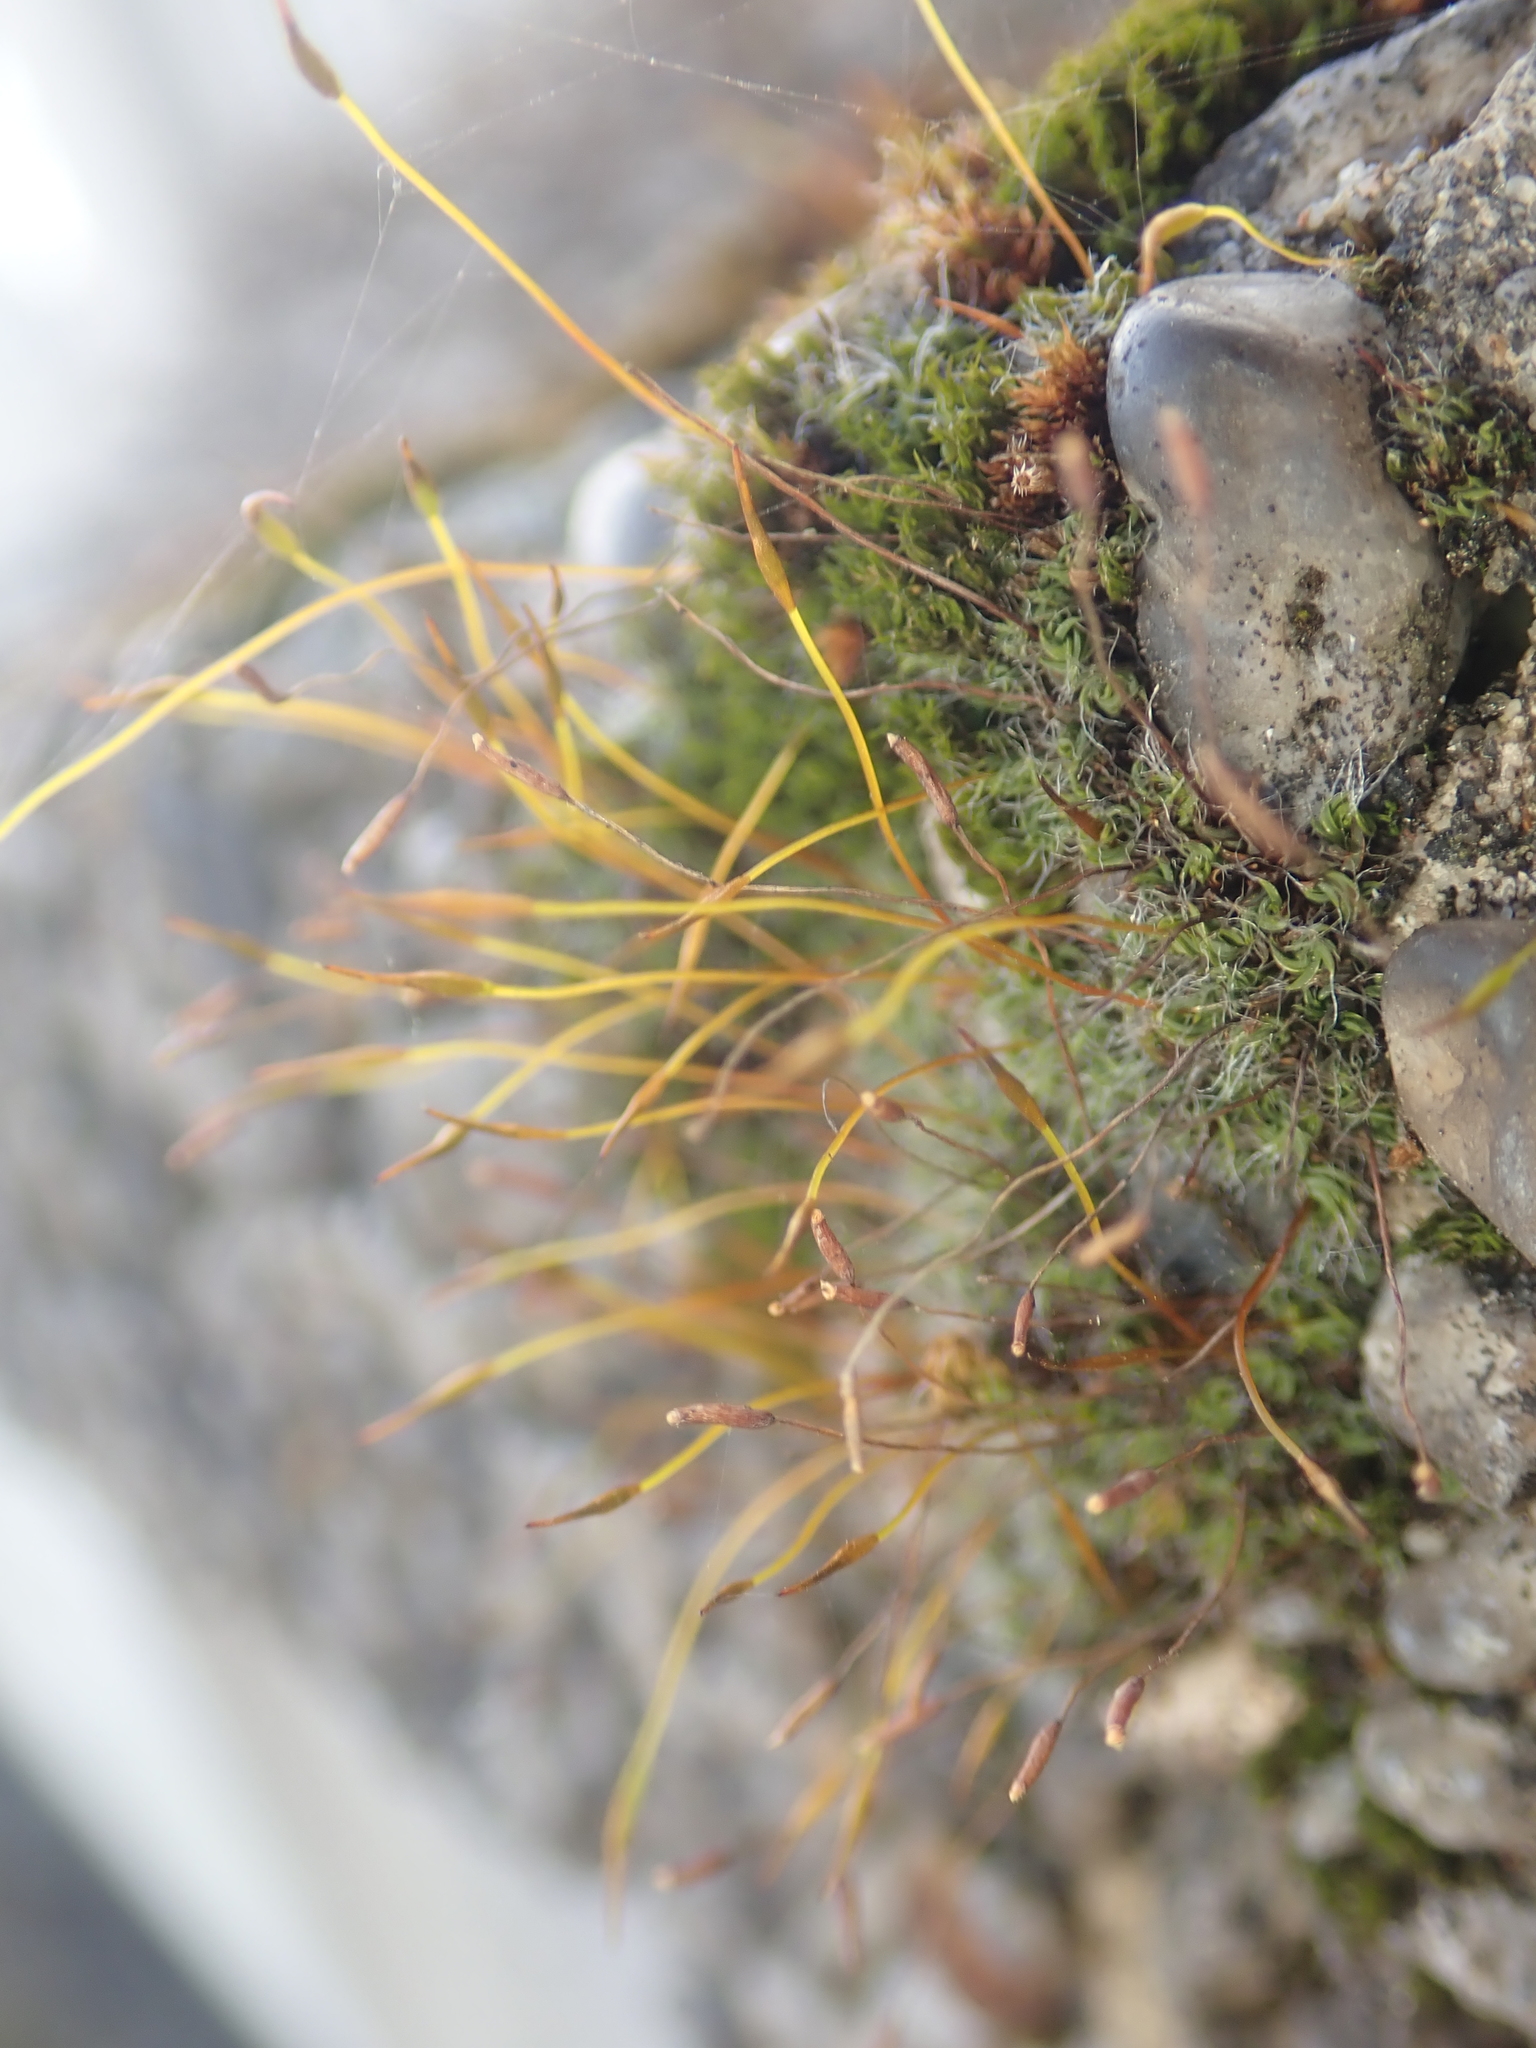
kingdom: Plantae
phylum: Bryophyta
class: Bryopsida
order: Pottiales
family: Pottiaceae
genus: Tortula
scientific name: Tortula muralis
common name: Wall screw-moss
